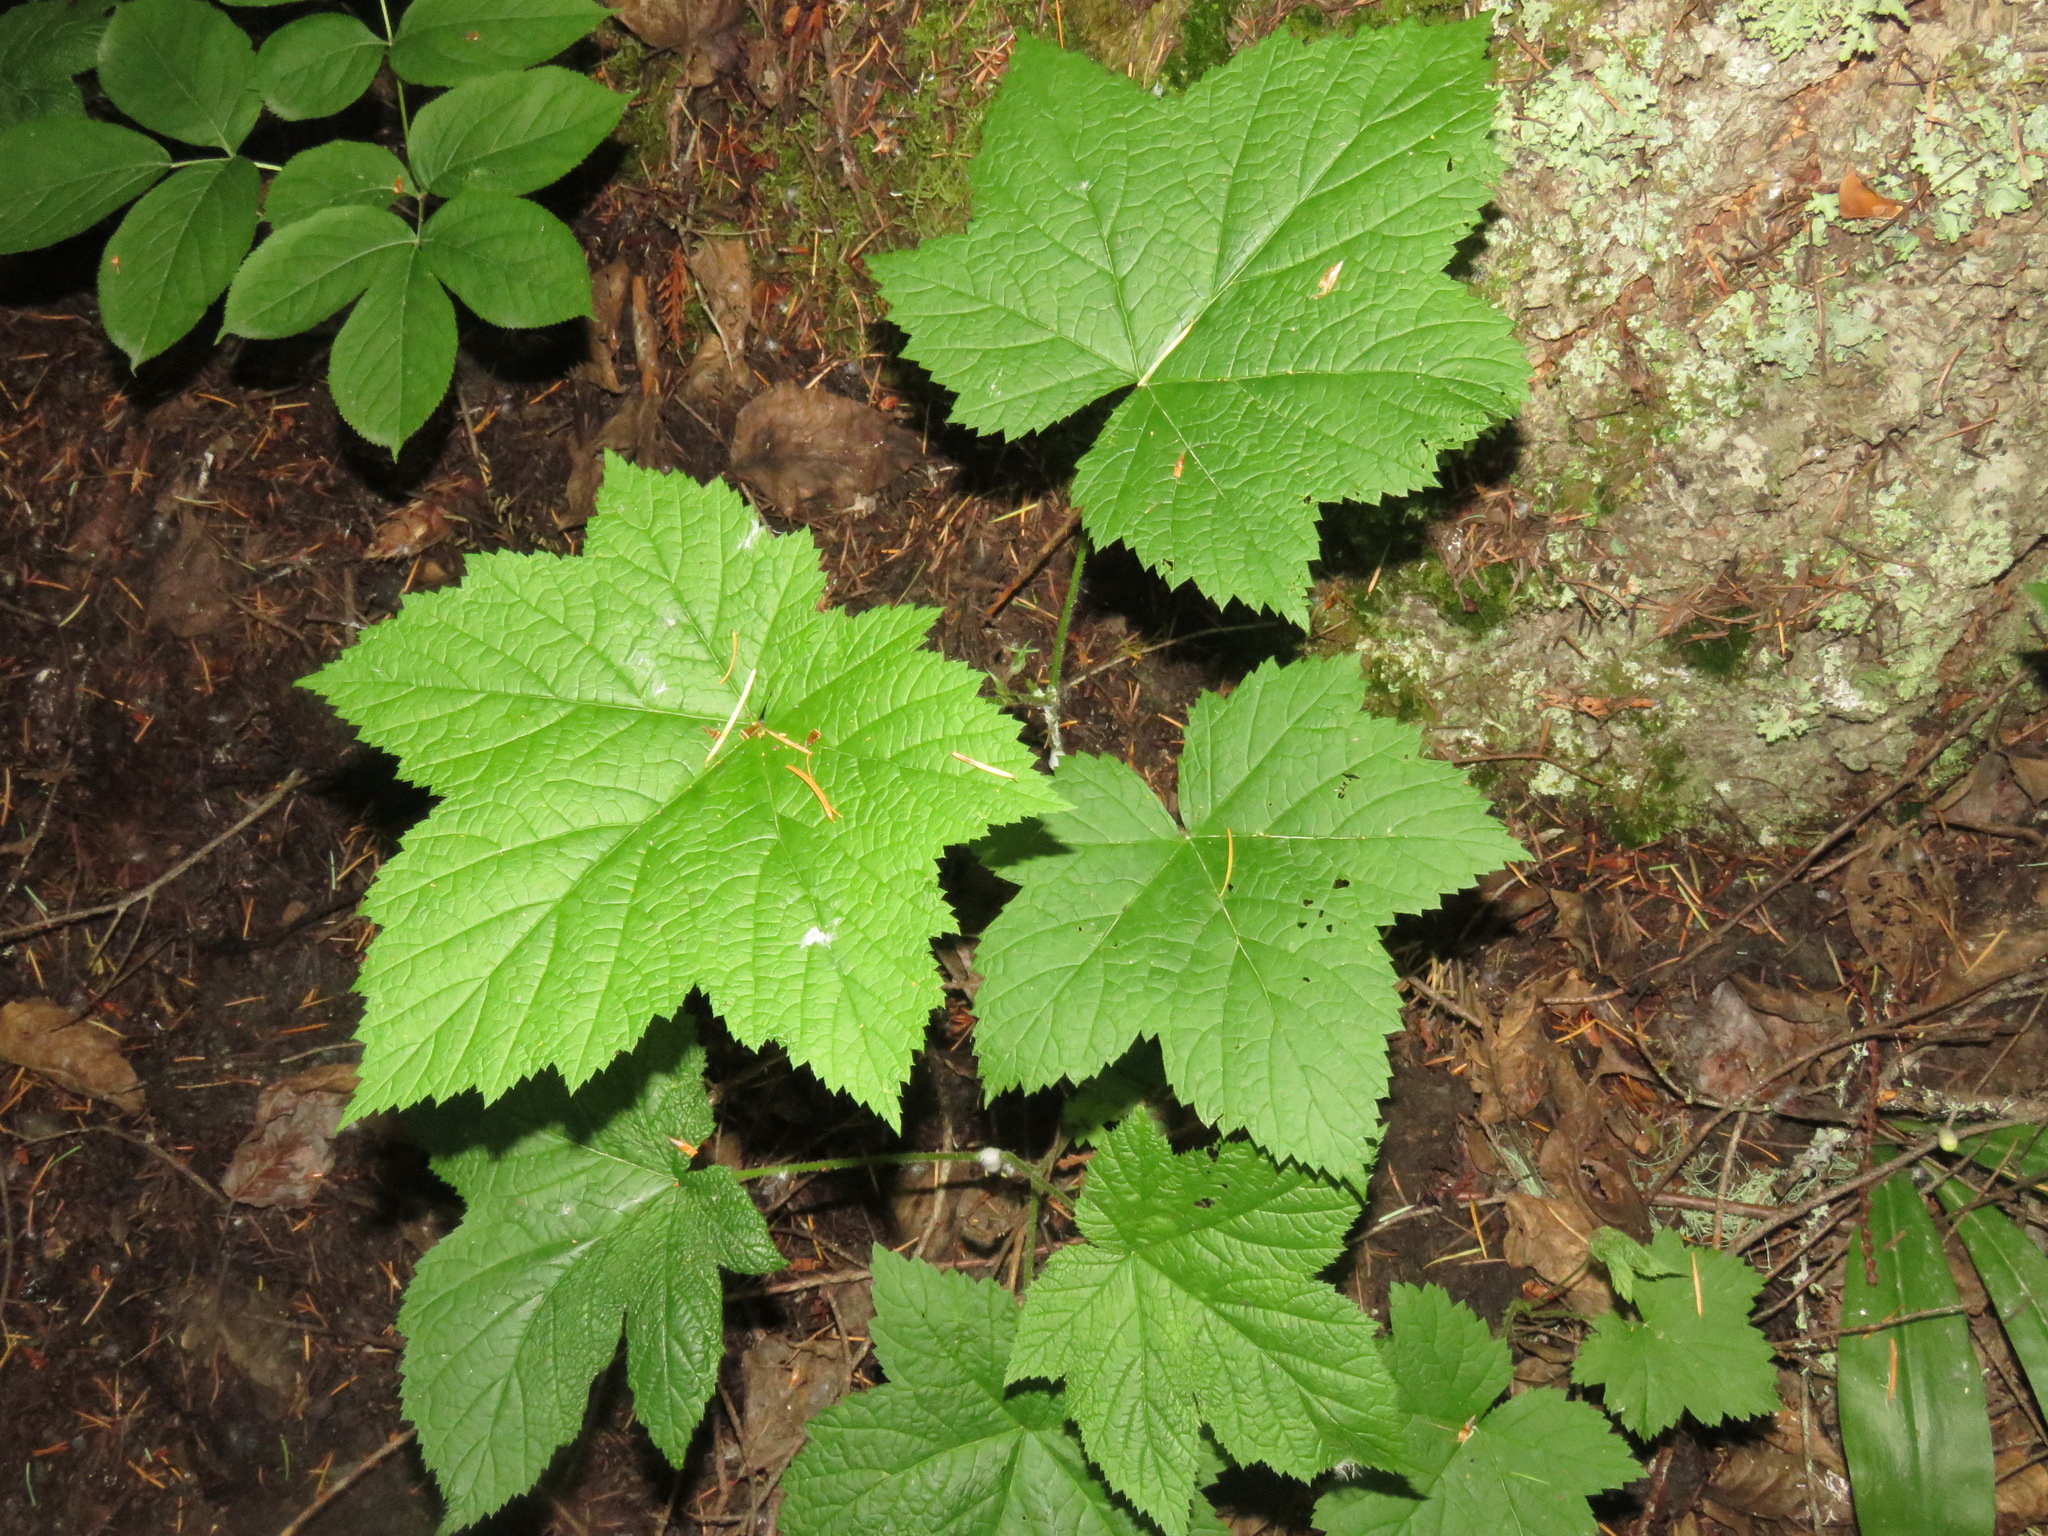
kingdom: Plantae
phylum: Tracheophyta
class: Magnoliopsida
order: Rosales
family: Rosaceae
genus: Rubus
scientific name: Rubus parviflorus
